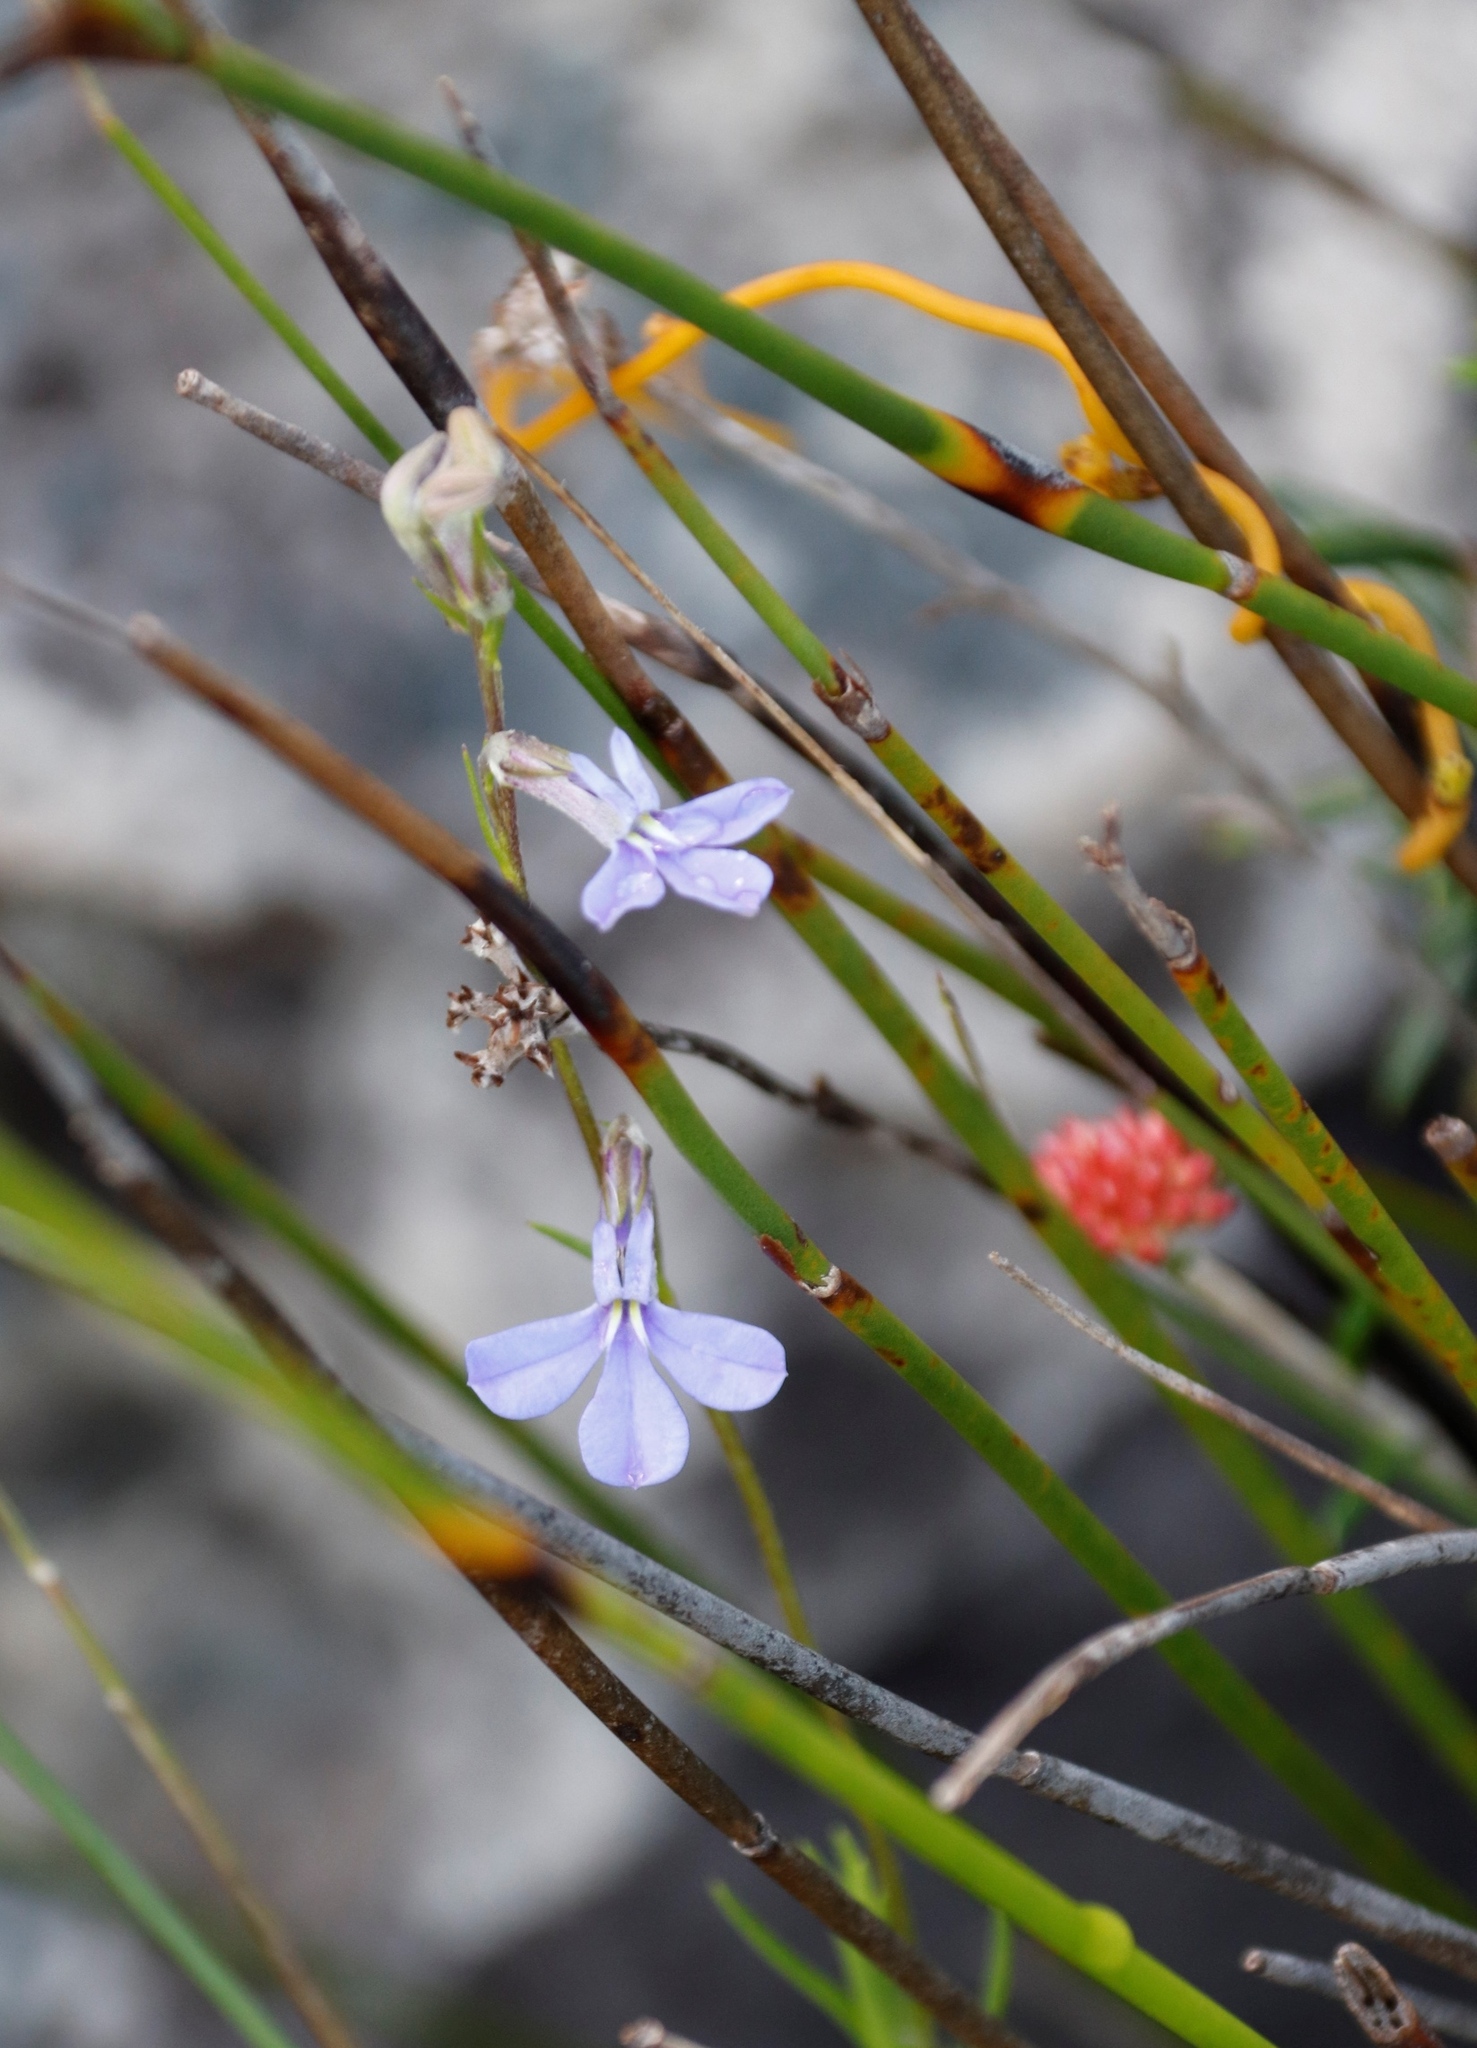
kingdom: Plantae
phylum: Tracheophyta
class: Magnoliopsida
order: Asterales
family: Campanulaceae
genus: Lobelia
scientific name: Lobelia pinifolia
